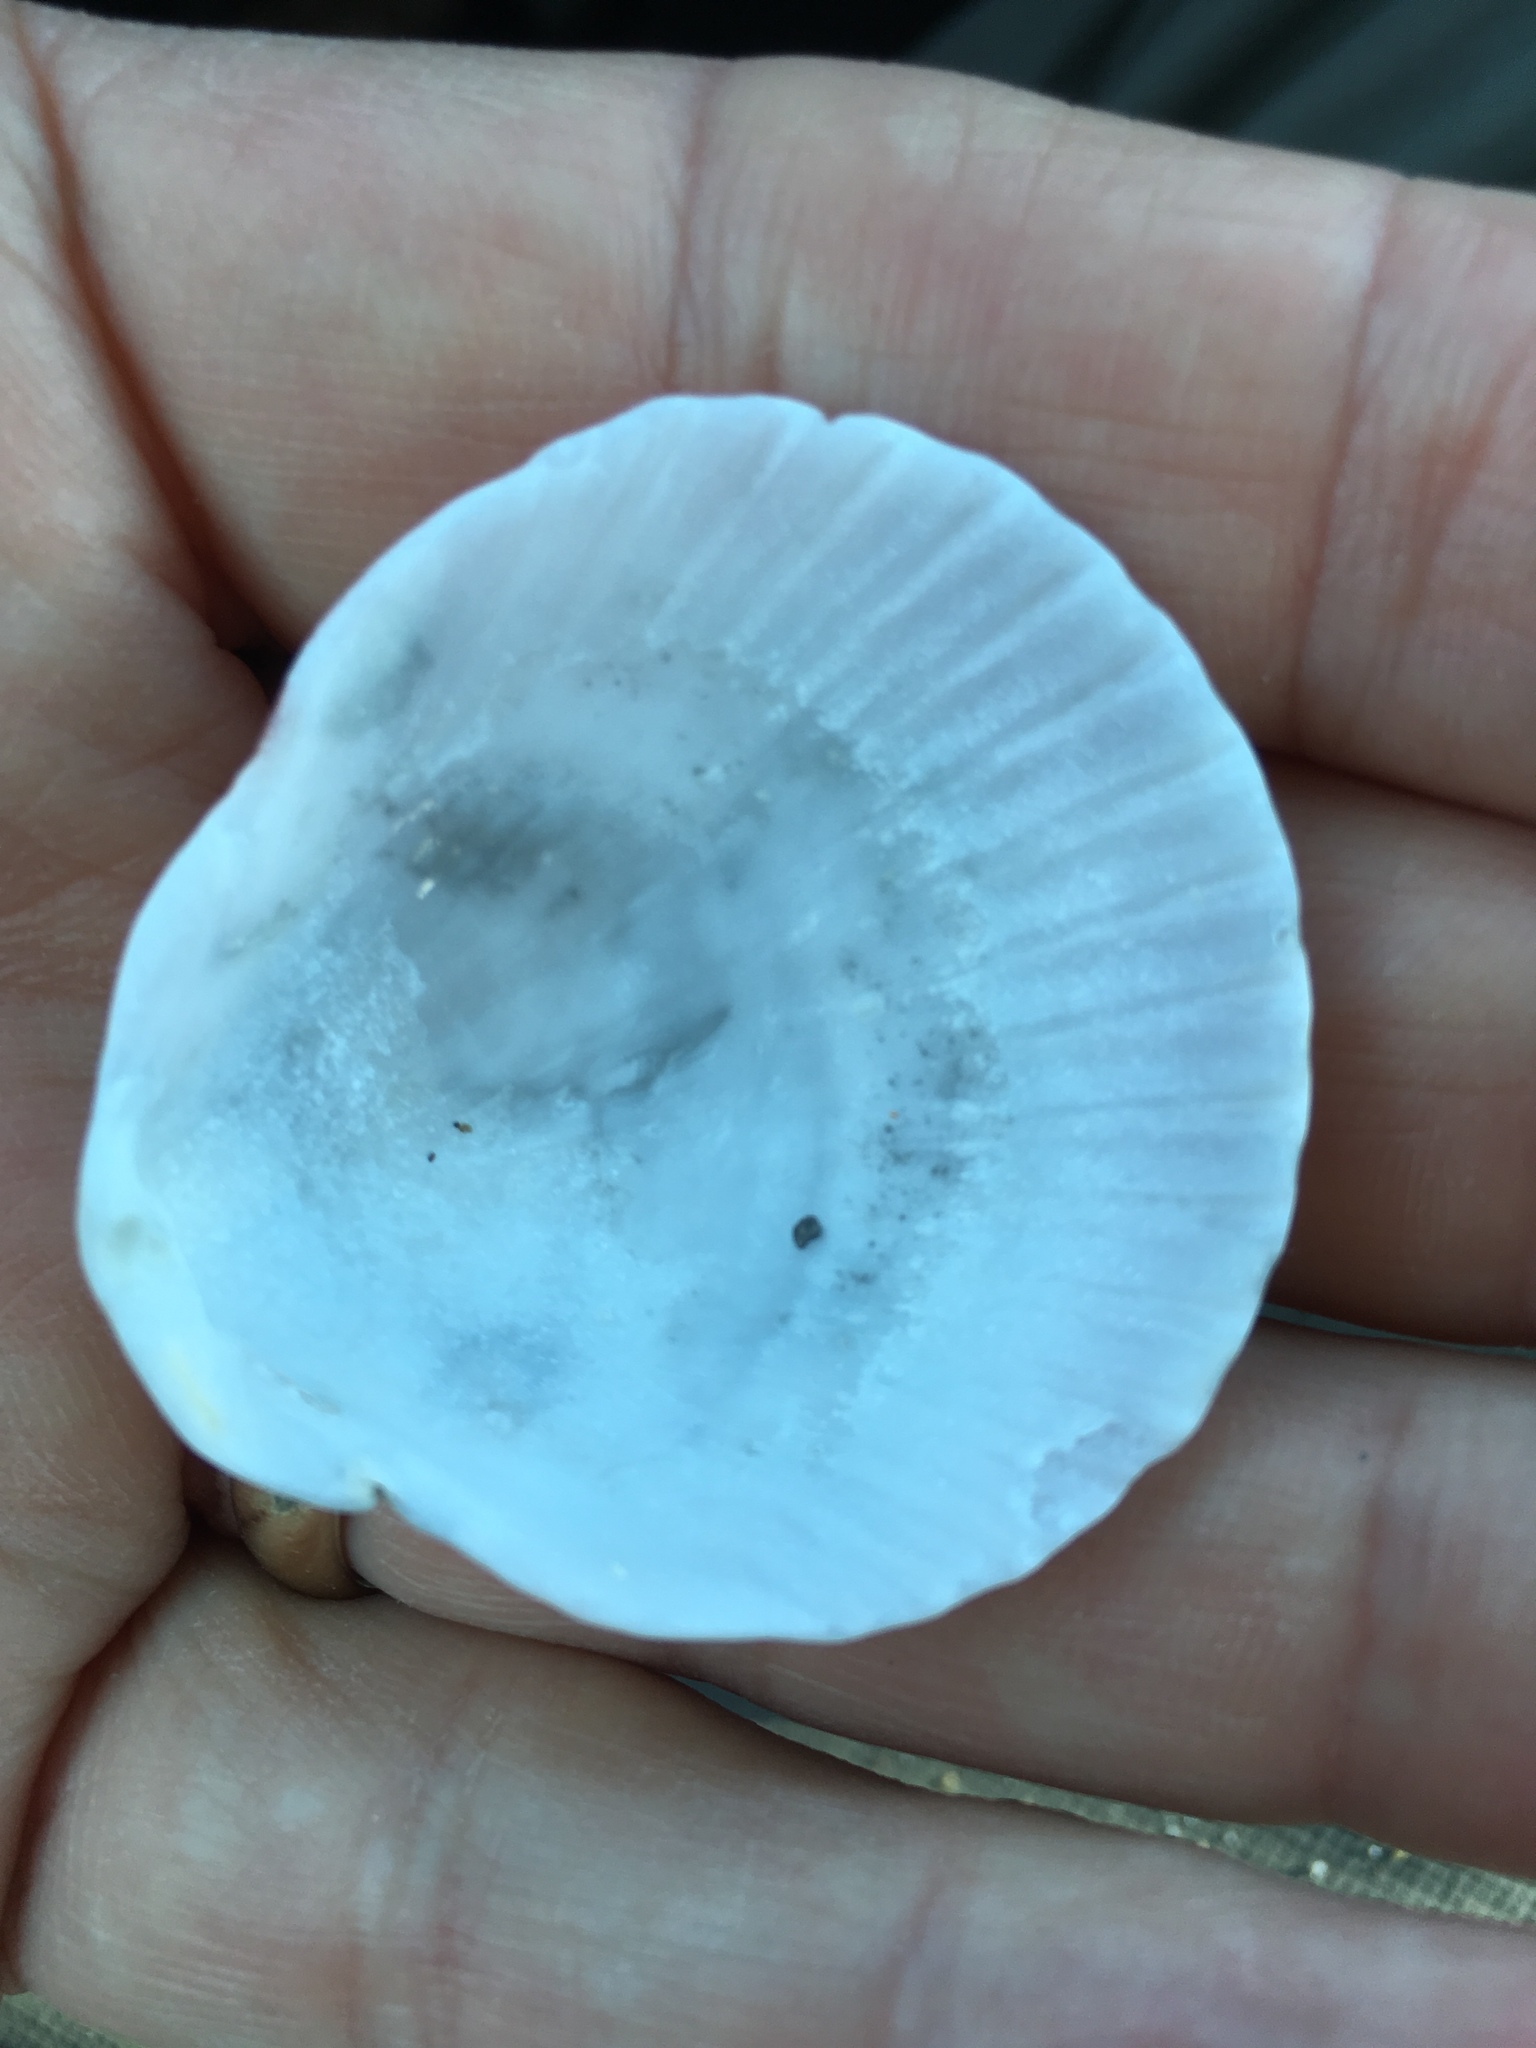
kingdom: Animalia
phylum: Mollusca
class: Bivalvia
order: Pectinida
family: Pectinidae
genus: Argopecten
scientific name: Argopecten gibbus
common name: Atlantic calico scallop
